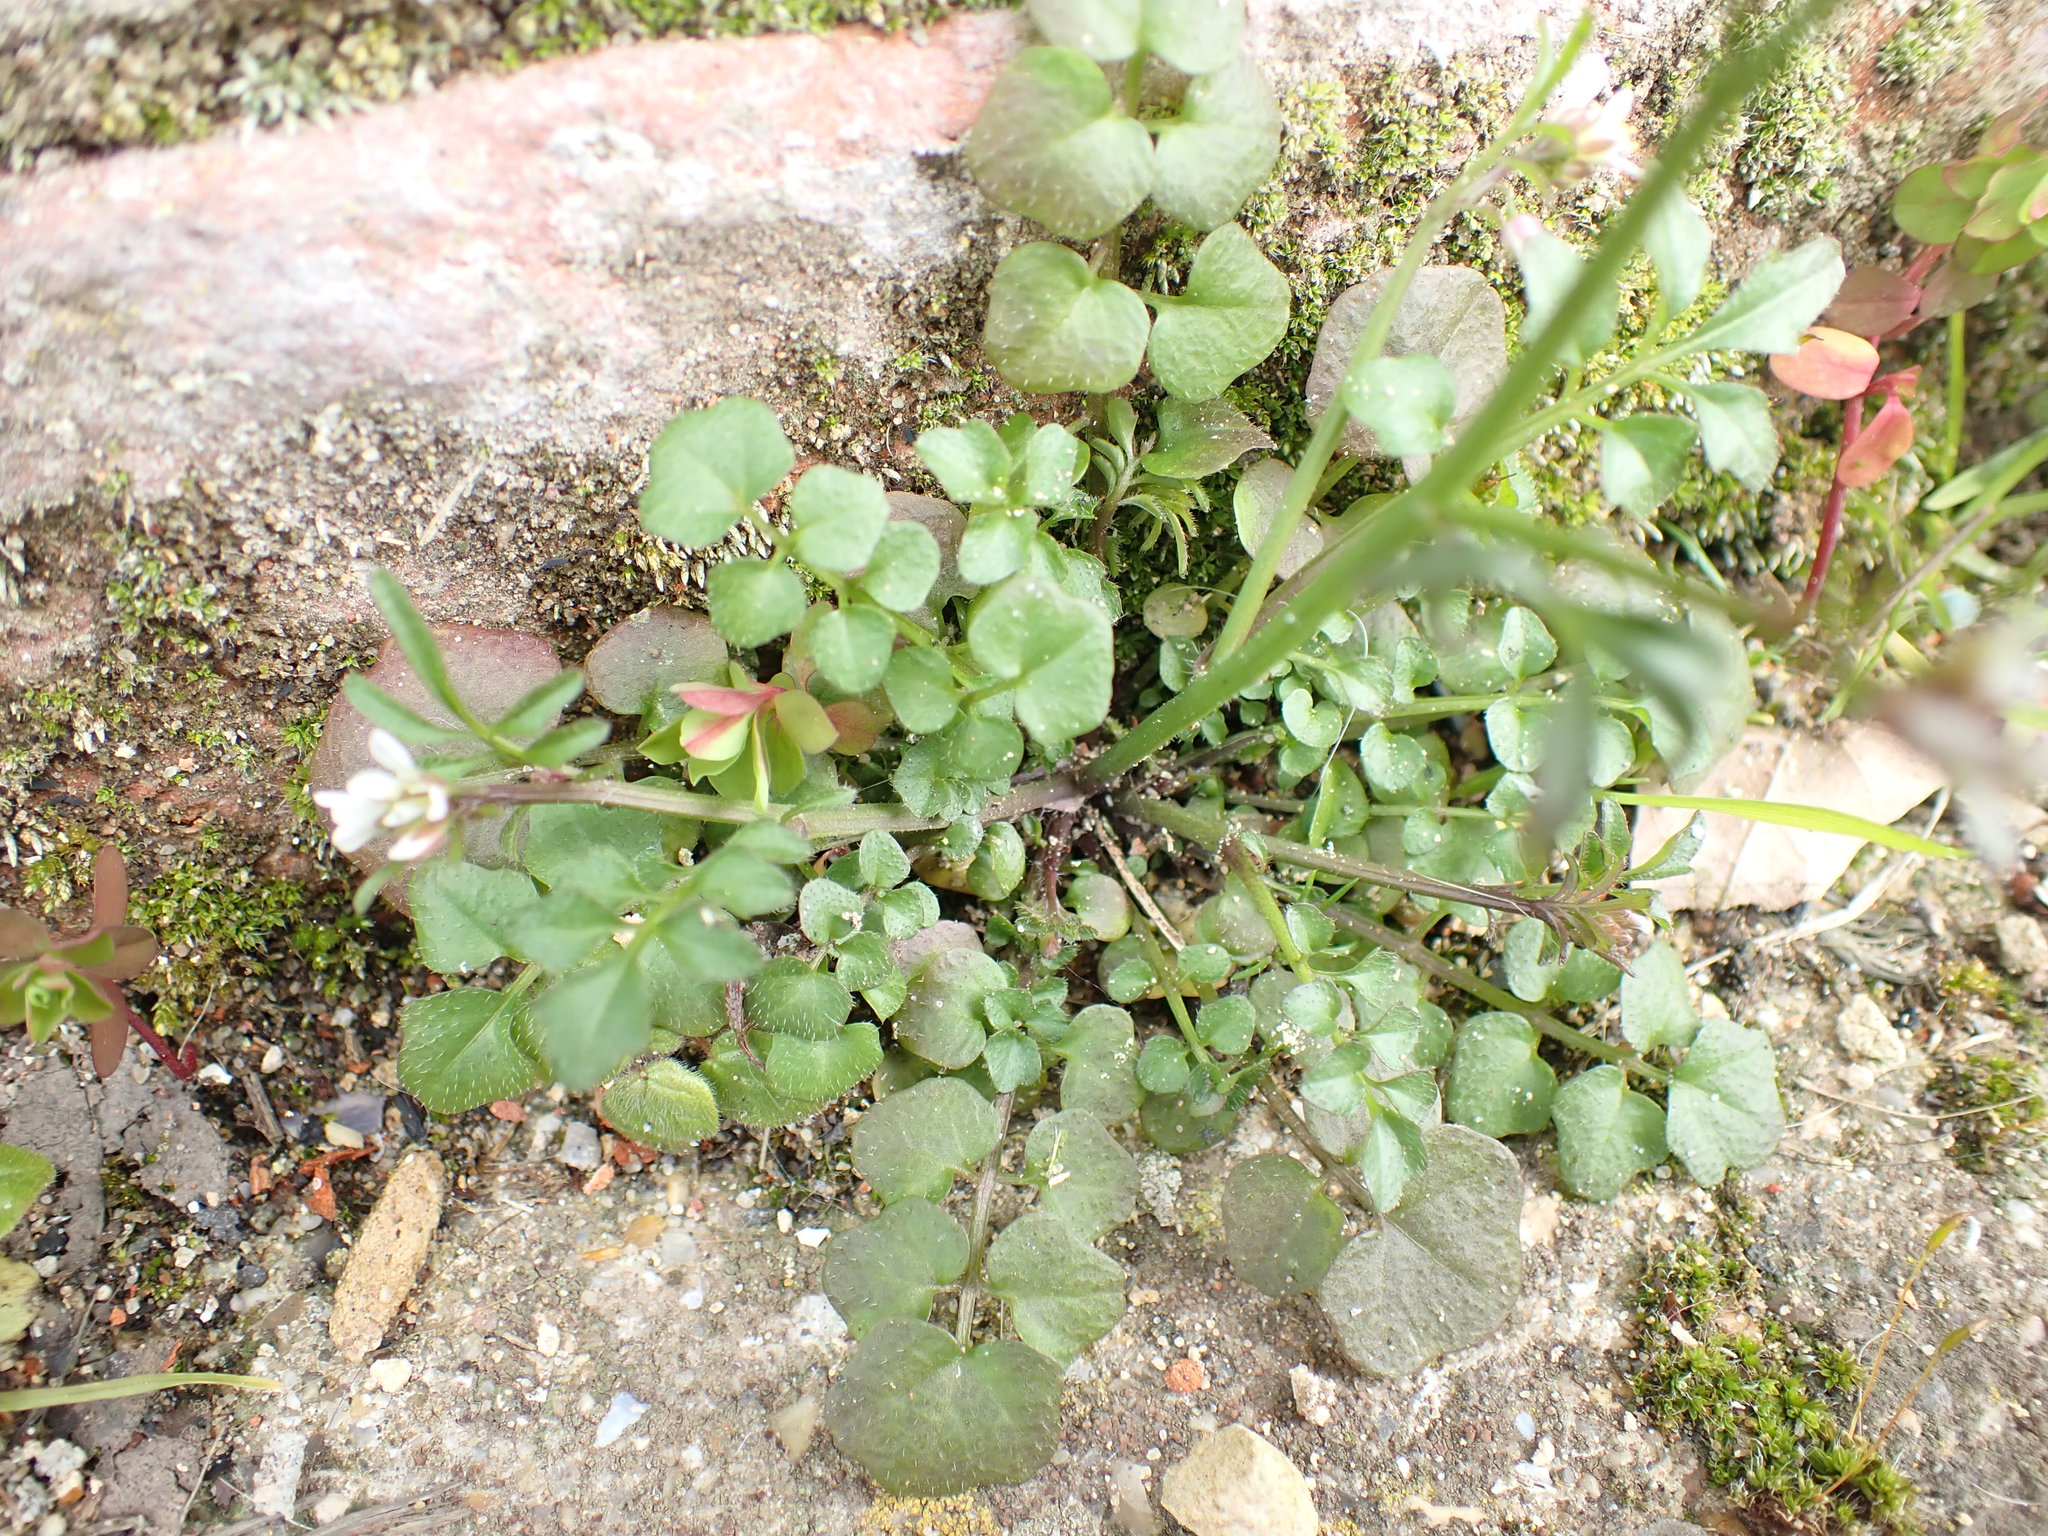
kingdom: Plantae
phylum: Tracheophyta
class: Magnoliopsida
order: Brassicales
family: Brassicaceae
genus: Cardamine
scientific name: Cardamine hirsuta
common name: Hairy bittercress
